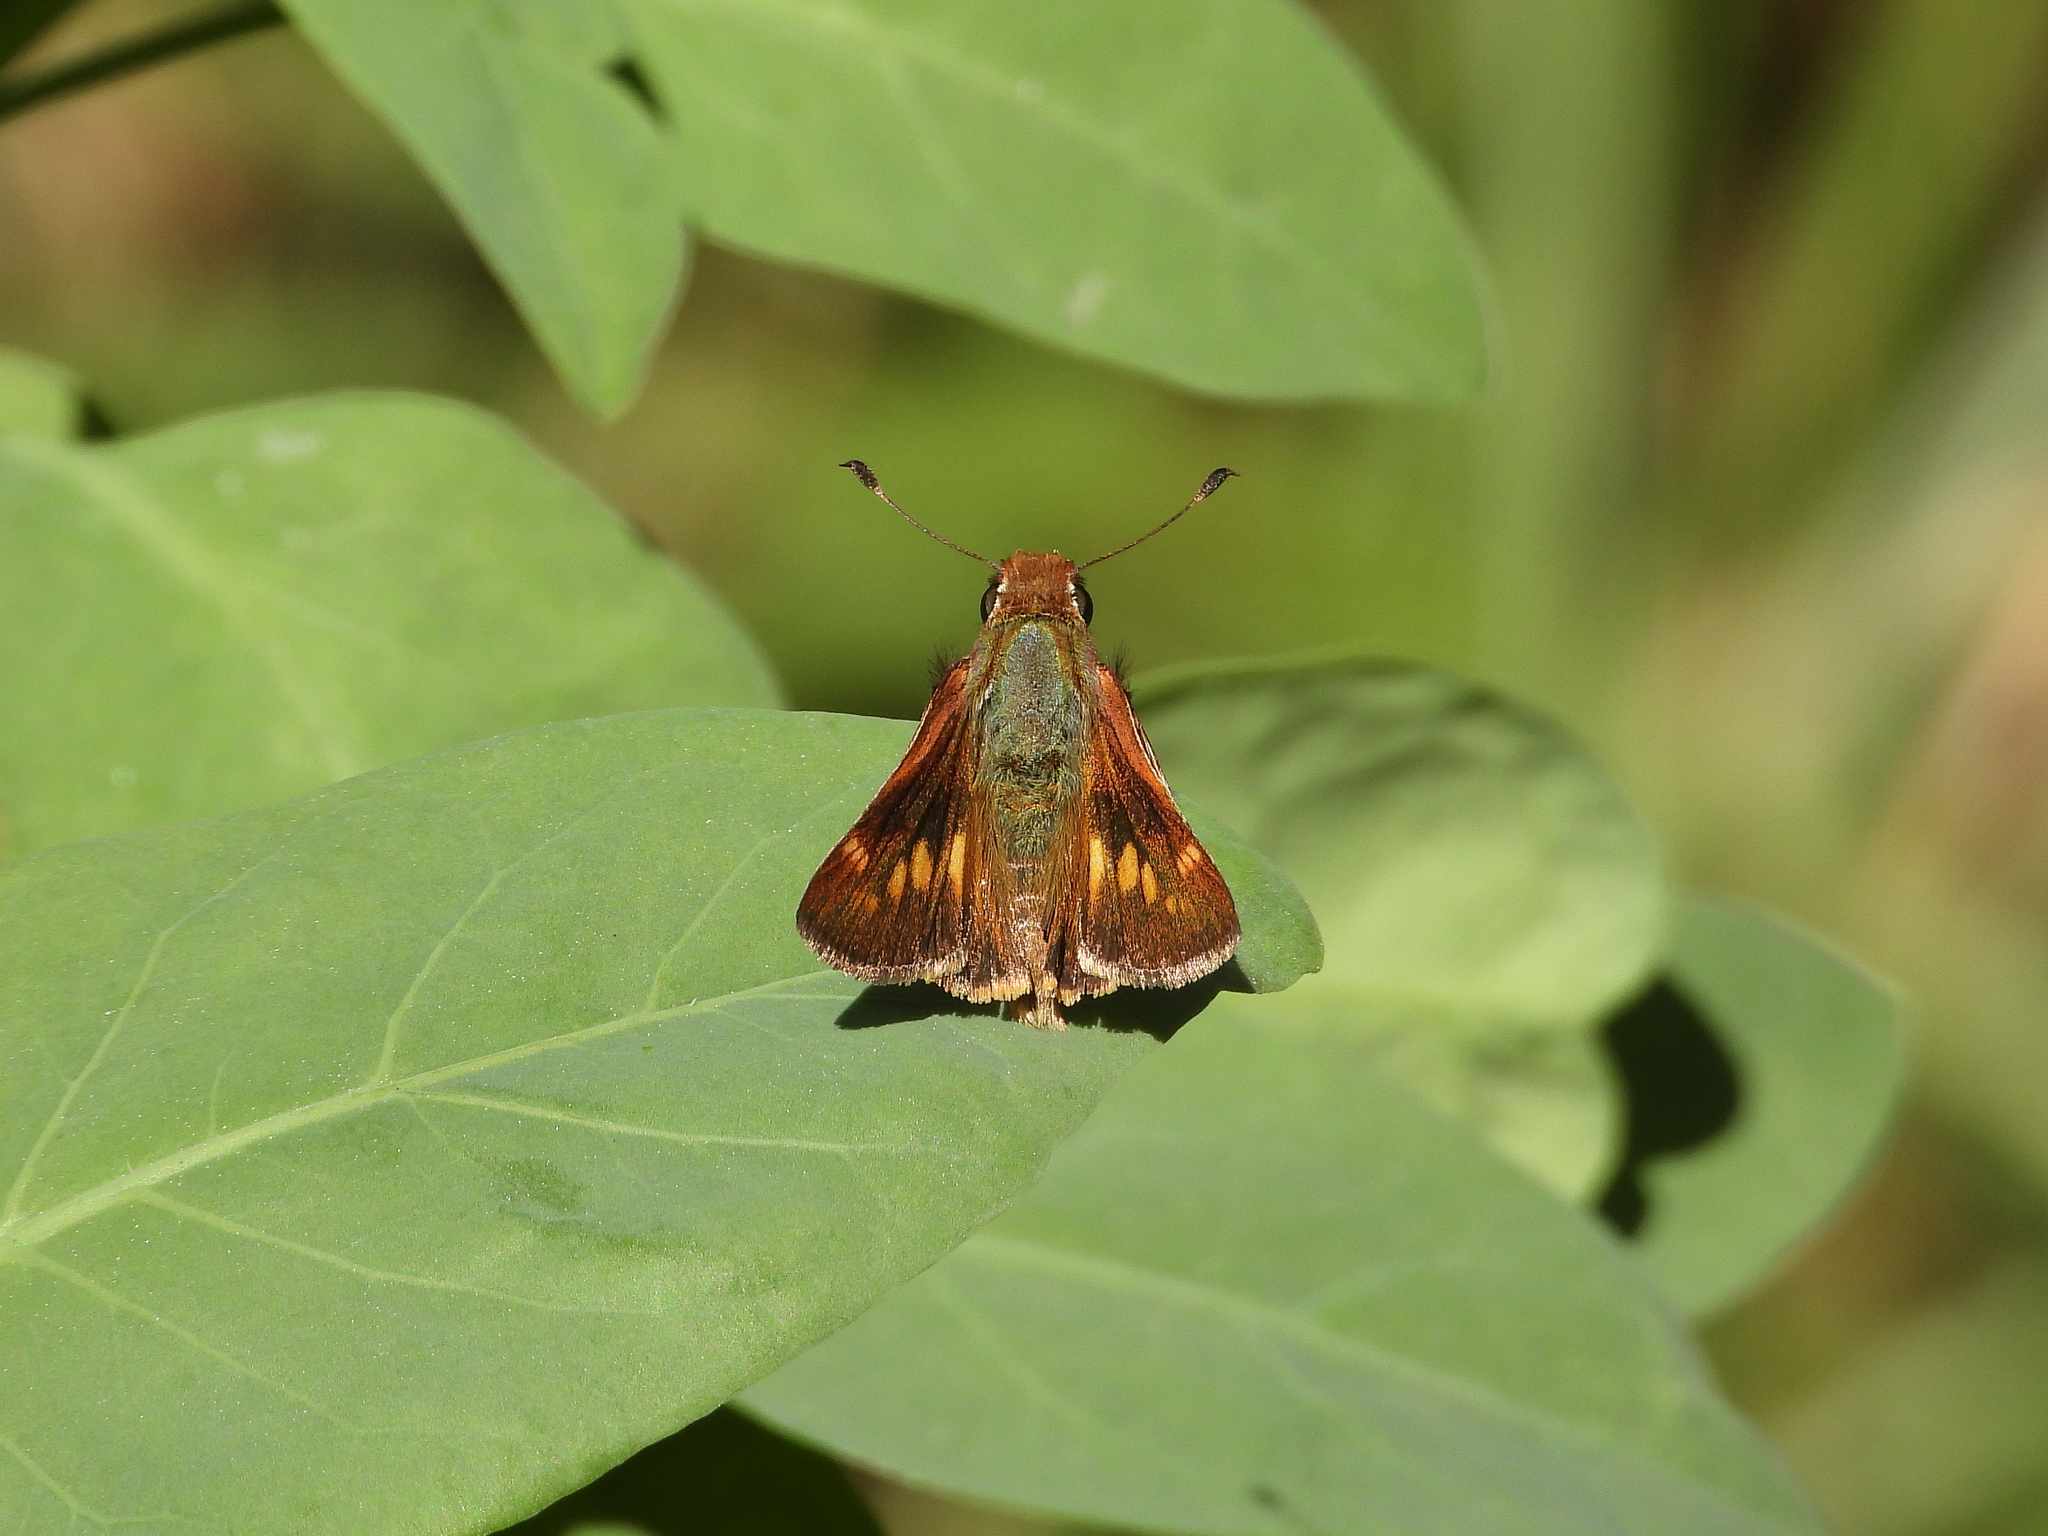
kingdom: Animalia
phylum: Arthropoda
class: Insecta
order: Lepidoptera
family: Hesperiidae
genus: Lon
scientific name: Lon melane
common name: Umber skipper
